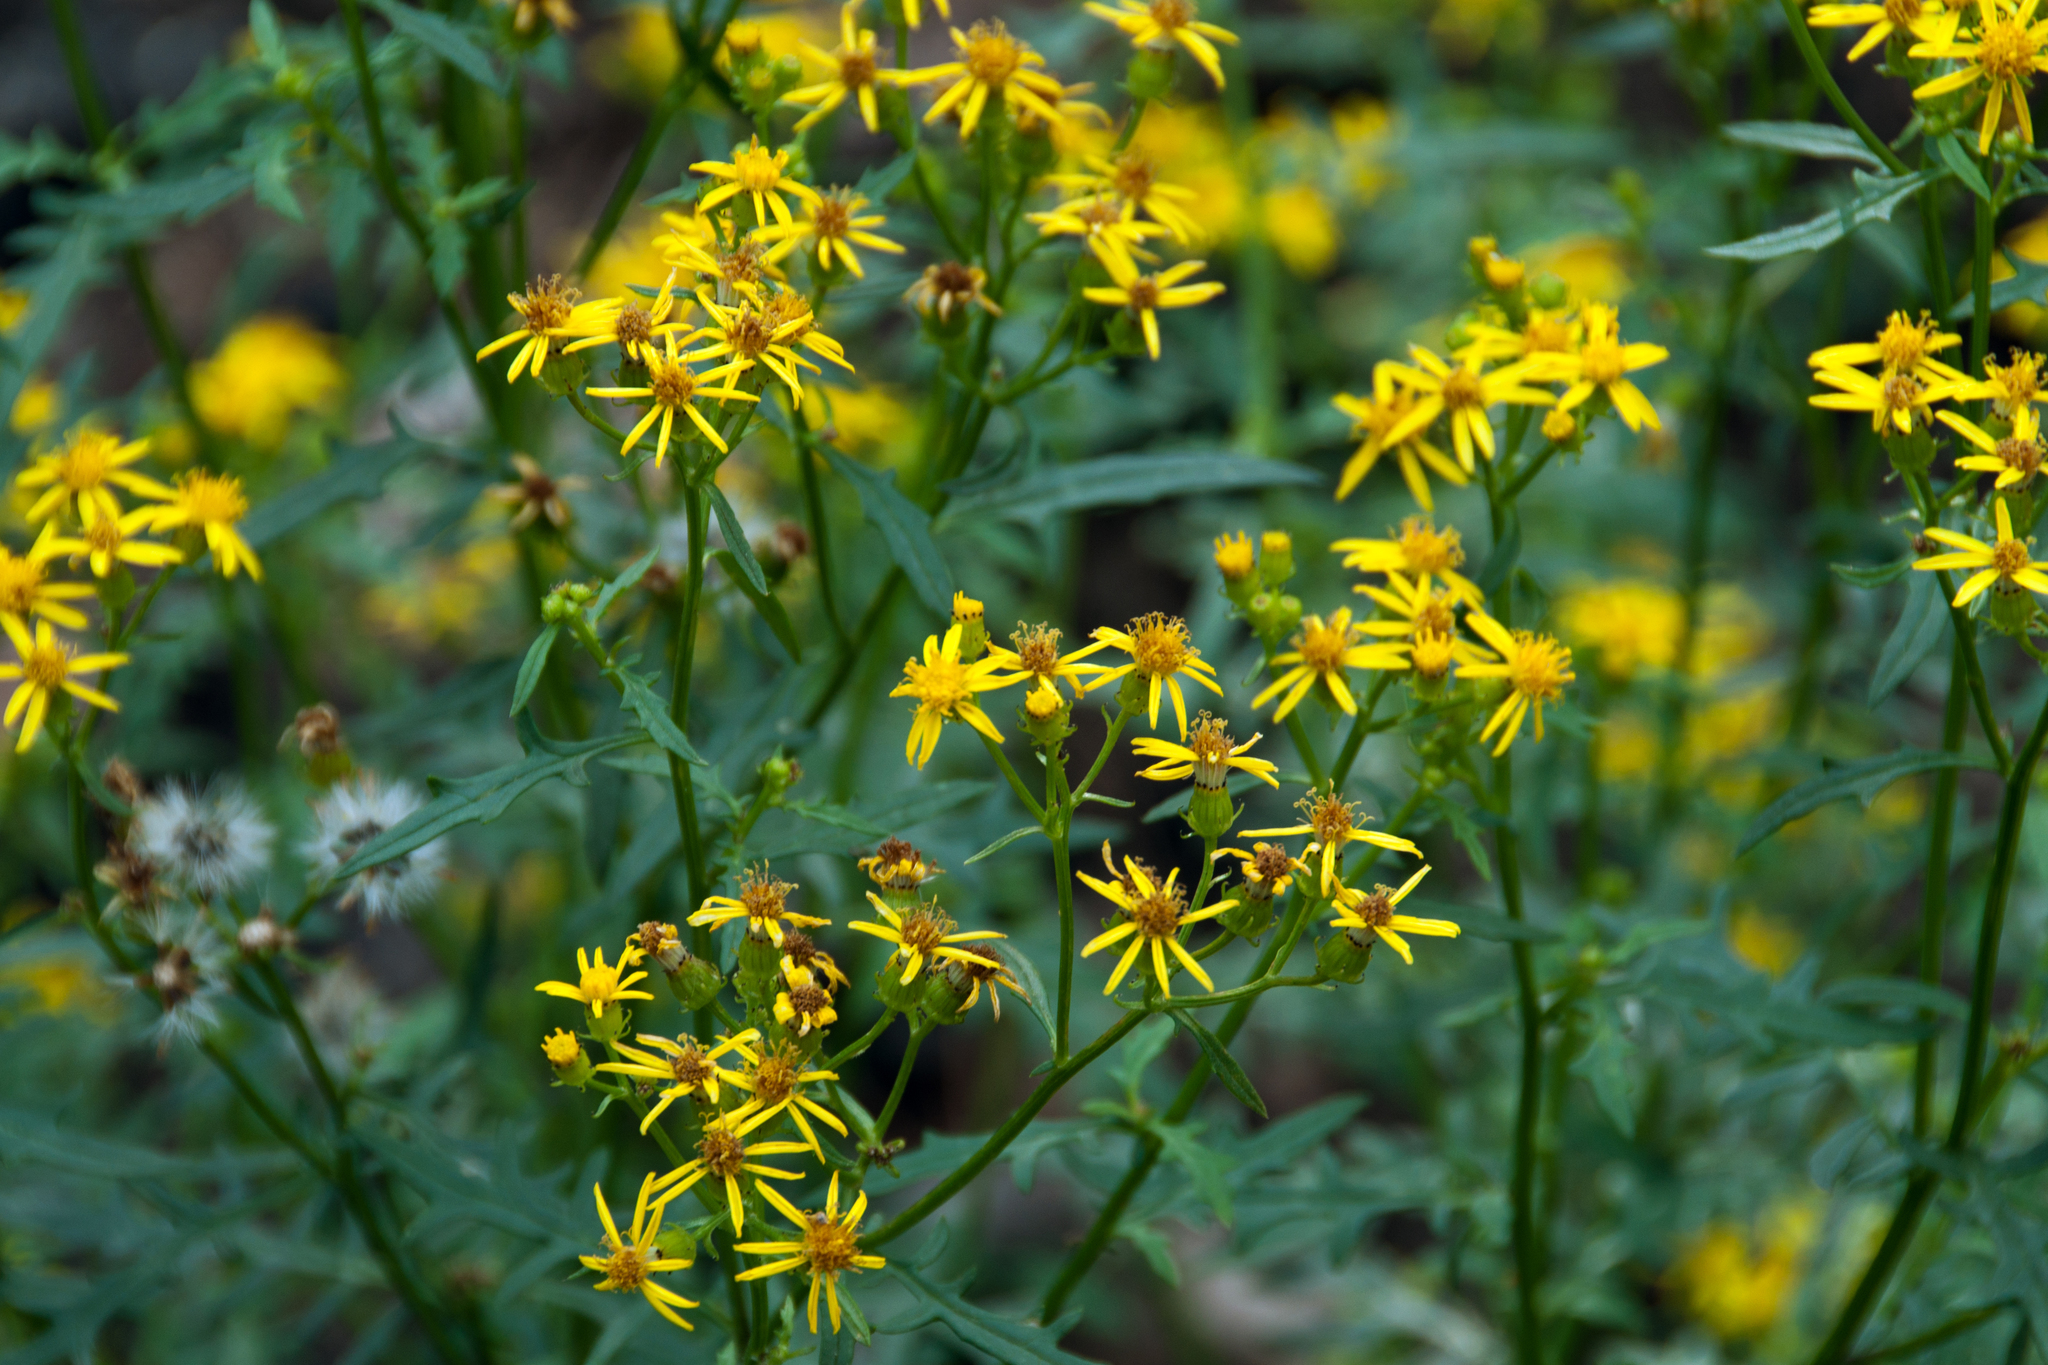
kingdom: Plantae
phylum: Tracheophyta
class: Magnoliopsida
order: Asterales
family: Asteraceae
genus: Senecio
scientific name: Senecio eremophilus
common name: Desert ragwort
